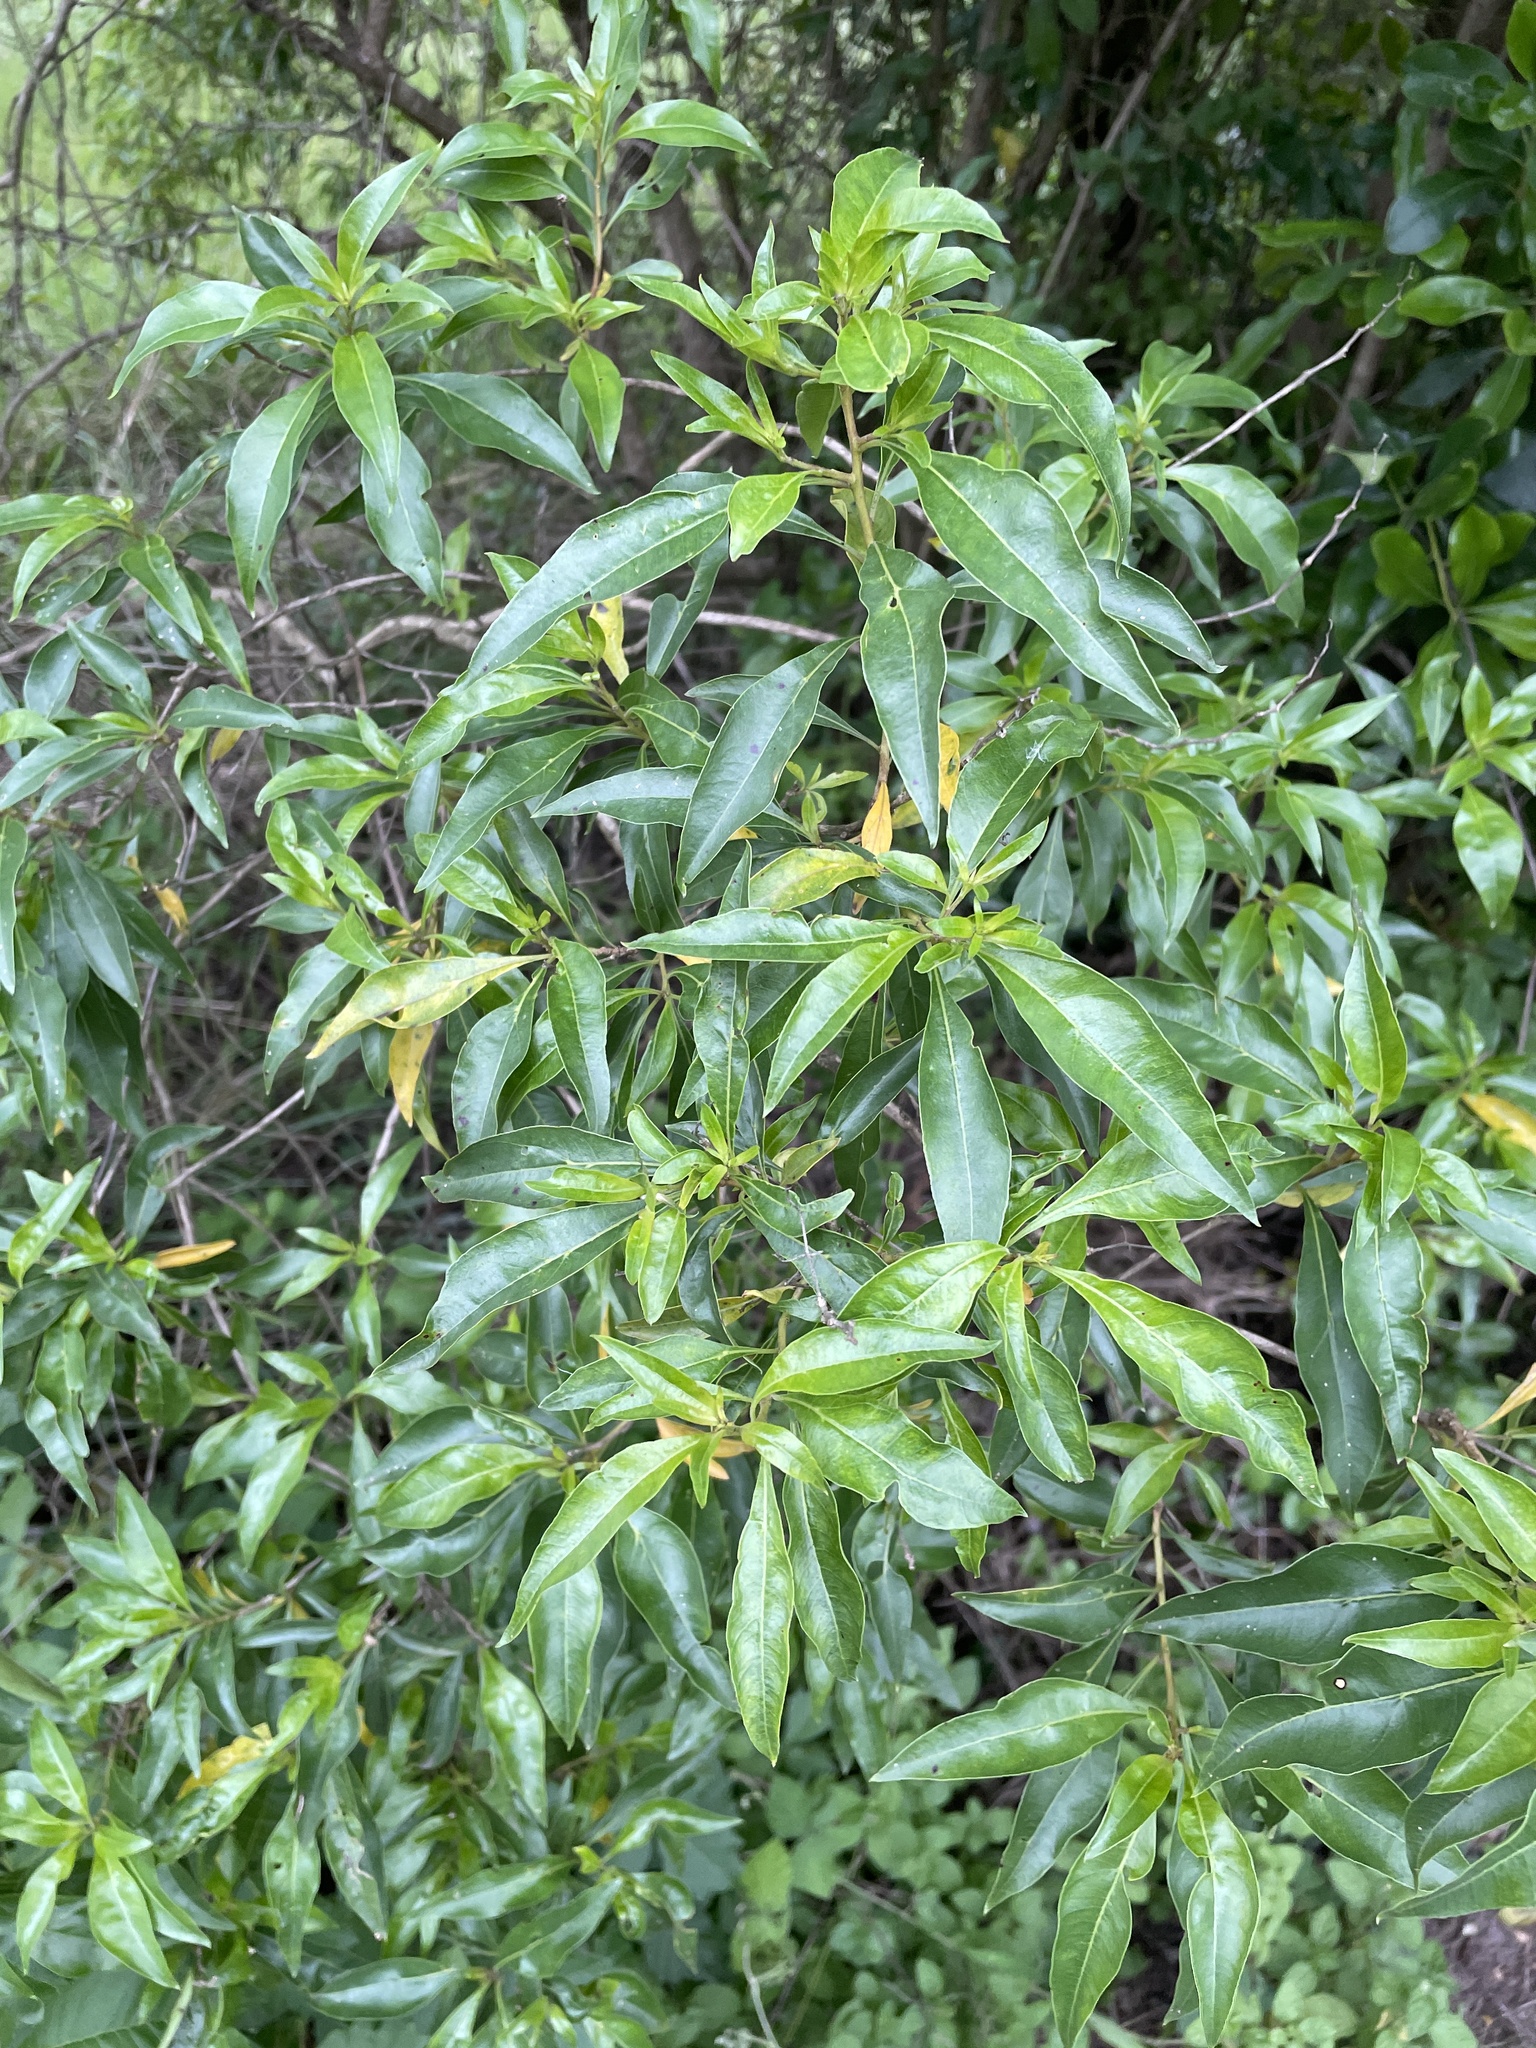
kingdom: Plantae
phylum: Tracheophyta
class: Magnoliopsida
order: Myrtales
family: Myrtaceae
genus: Heteropyxis
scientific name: Heteropyxis natalensis
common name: Lavender tree
